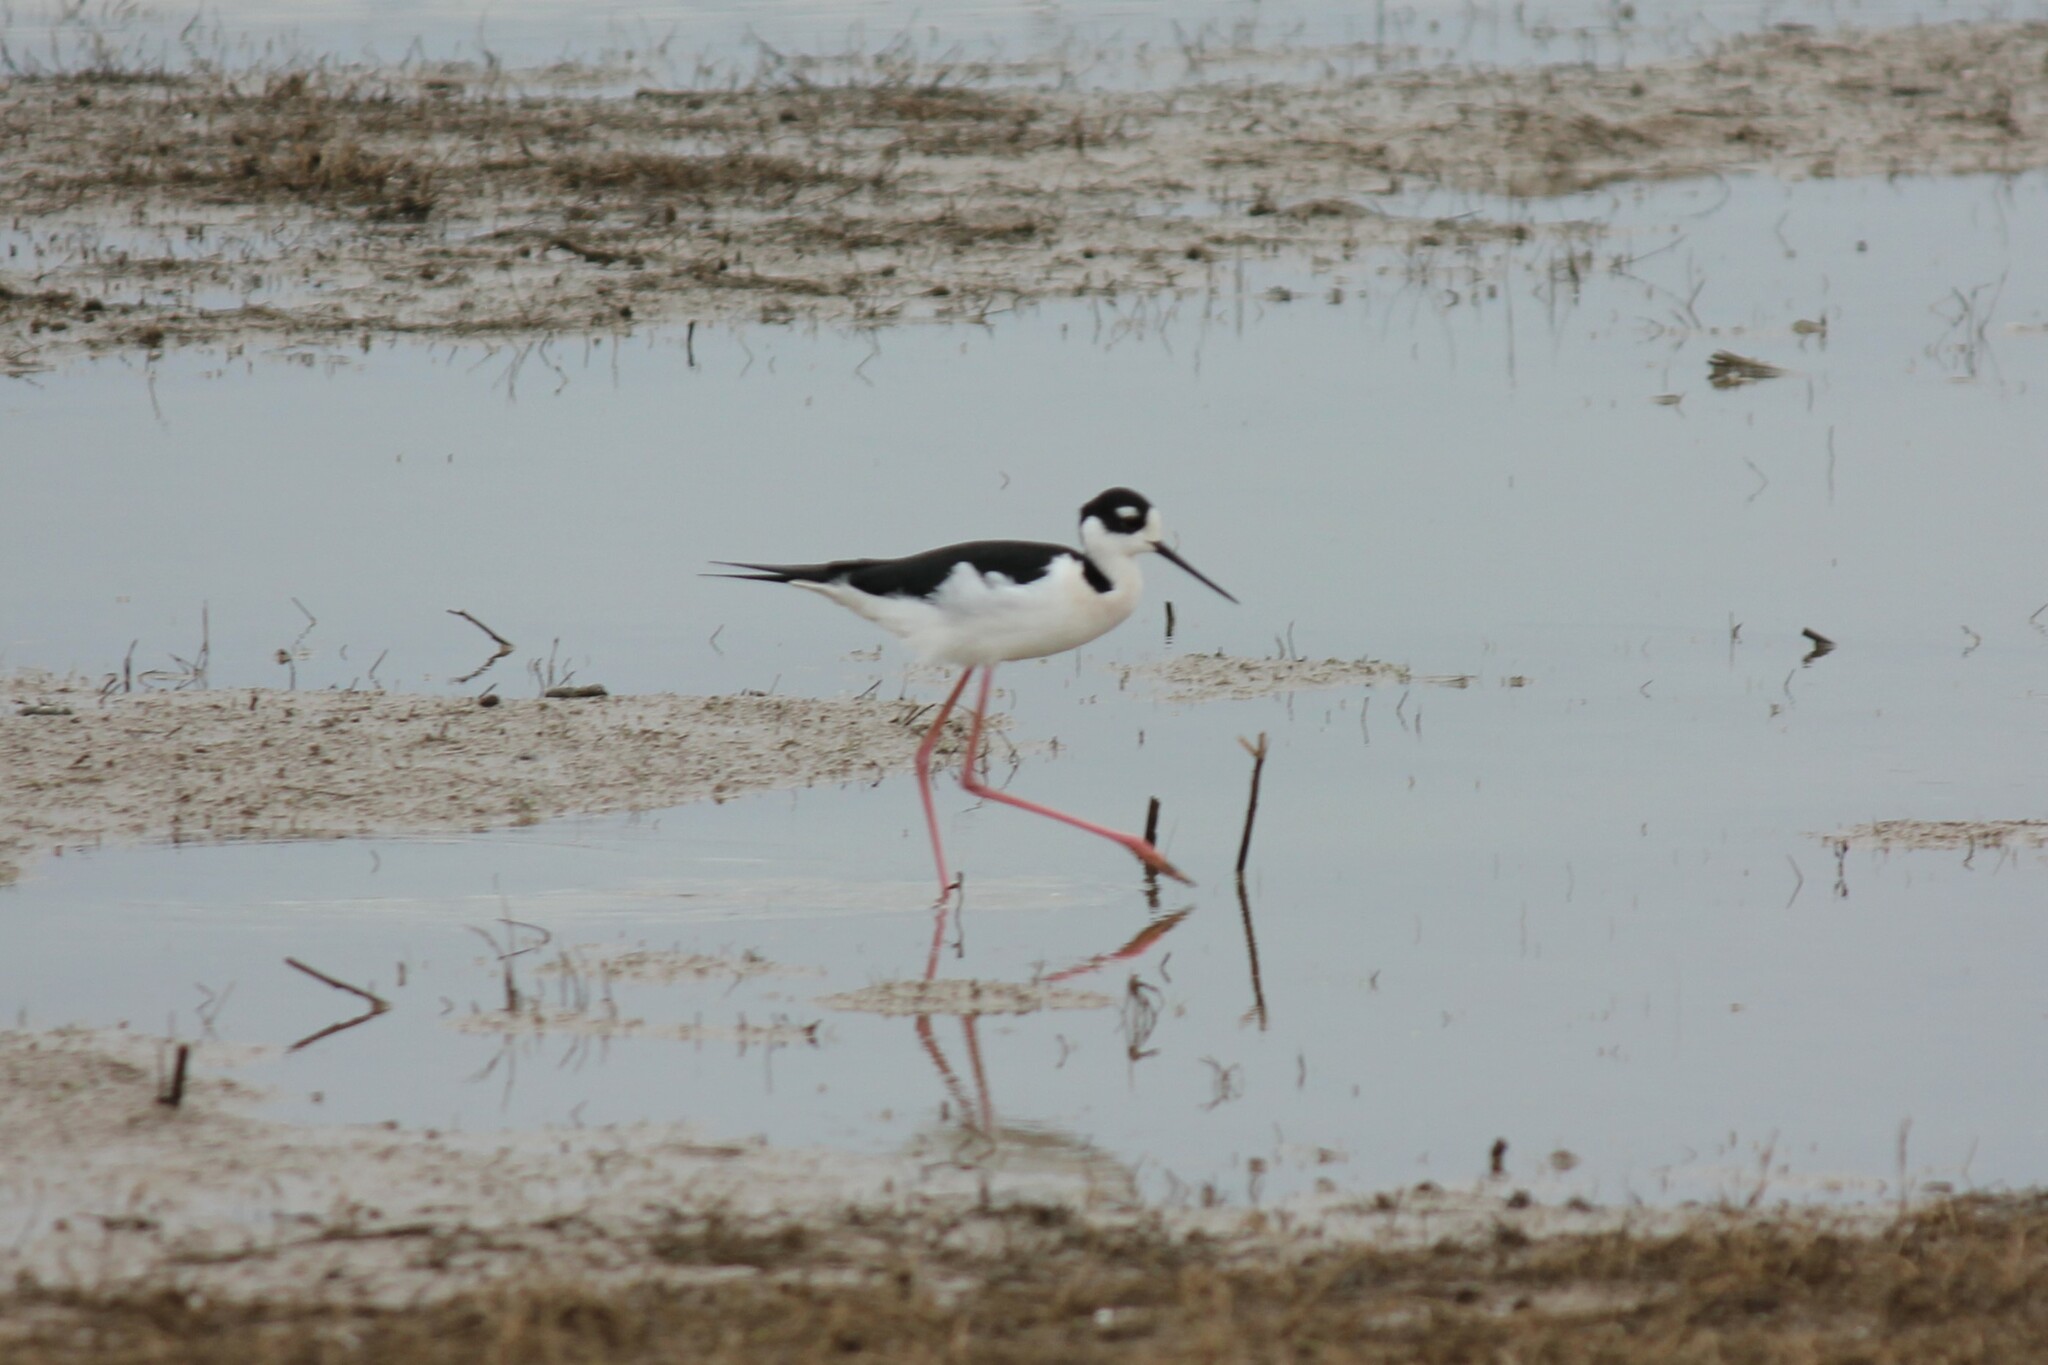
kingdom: Animalia
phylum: Chordata
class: Aves
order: Charadriiformes
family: Recurvirostridae
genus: Himantopus
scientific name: Himantopus mexicanus
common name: Black-necked stilt
